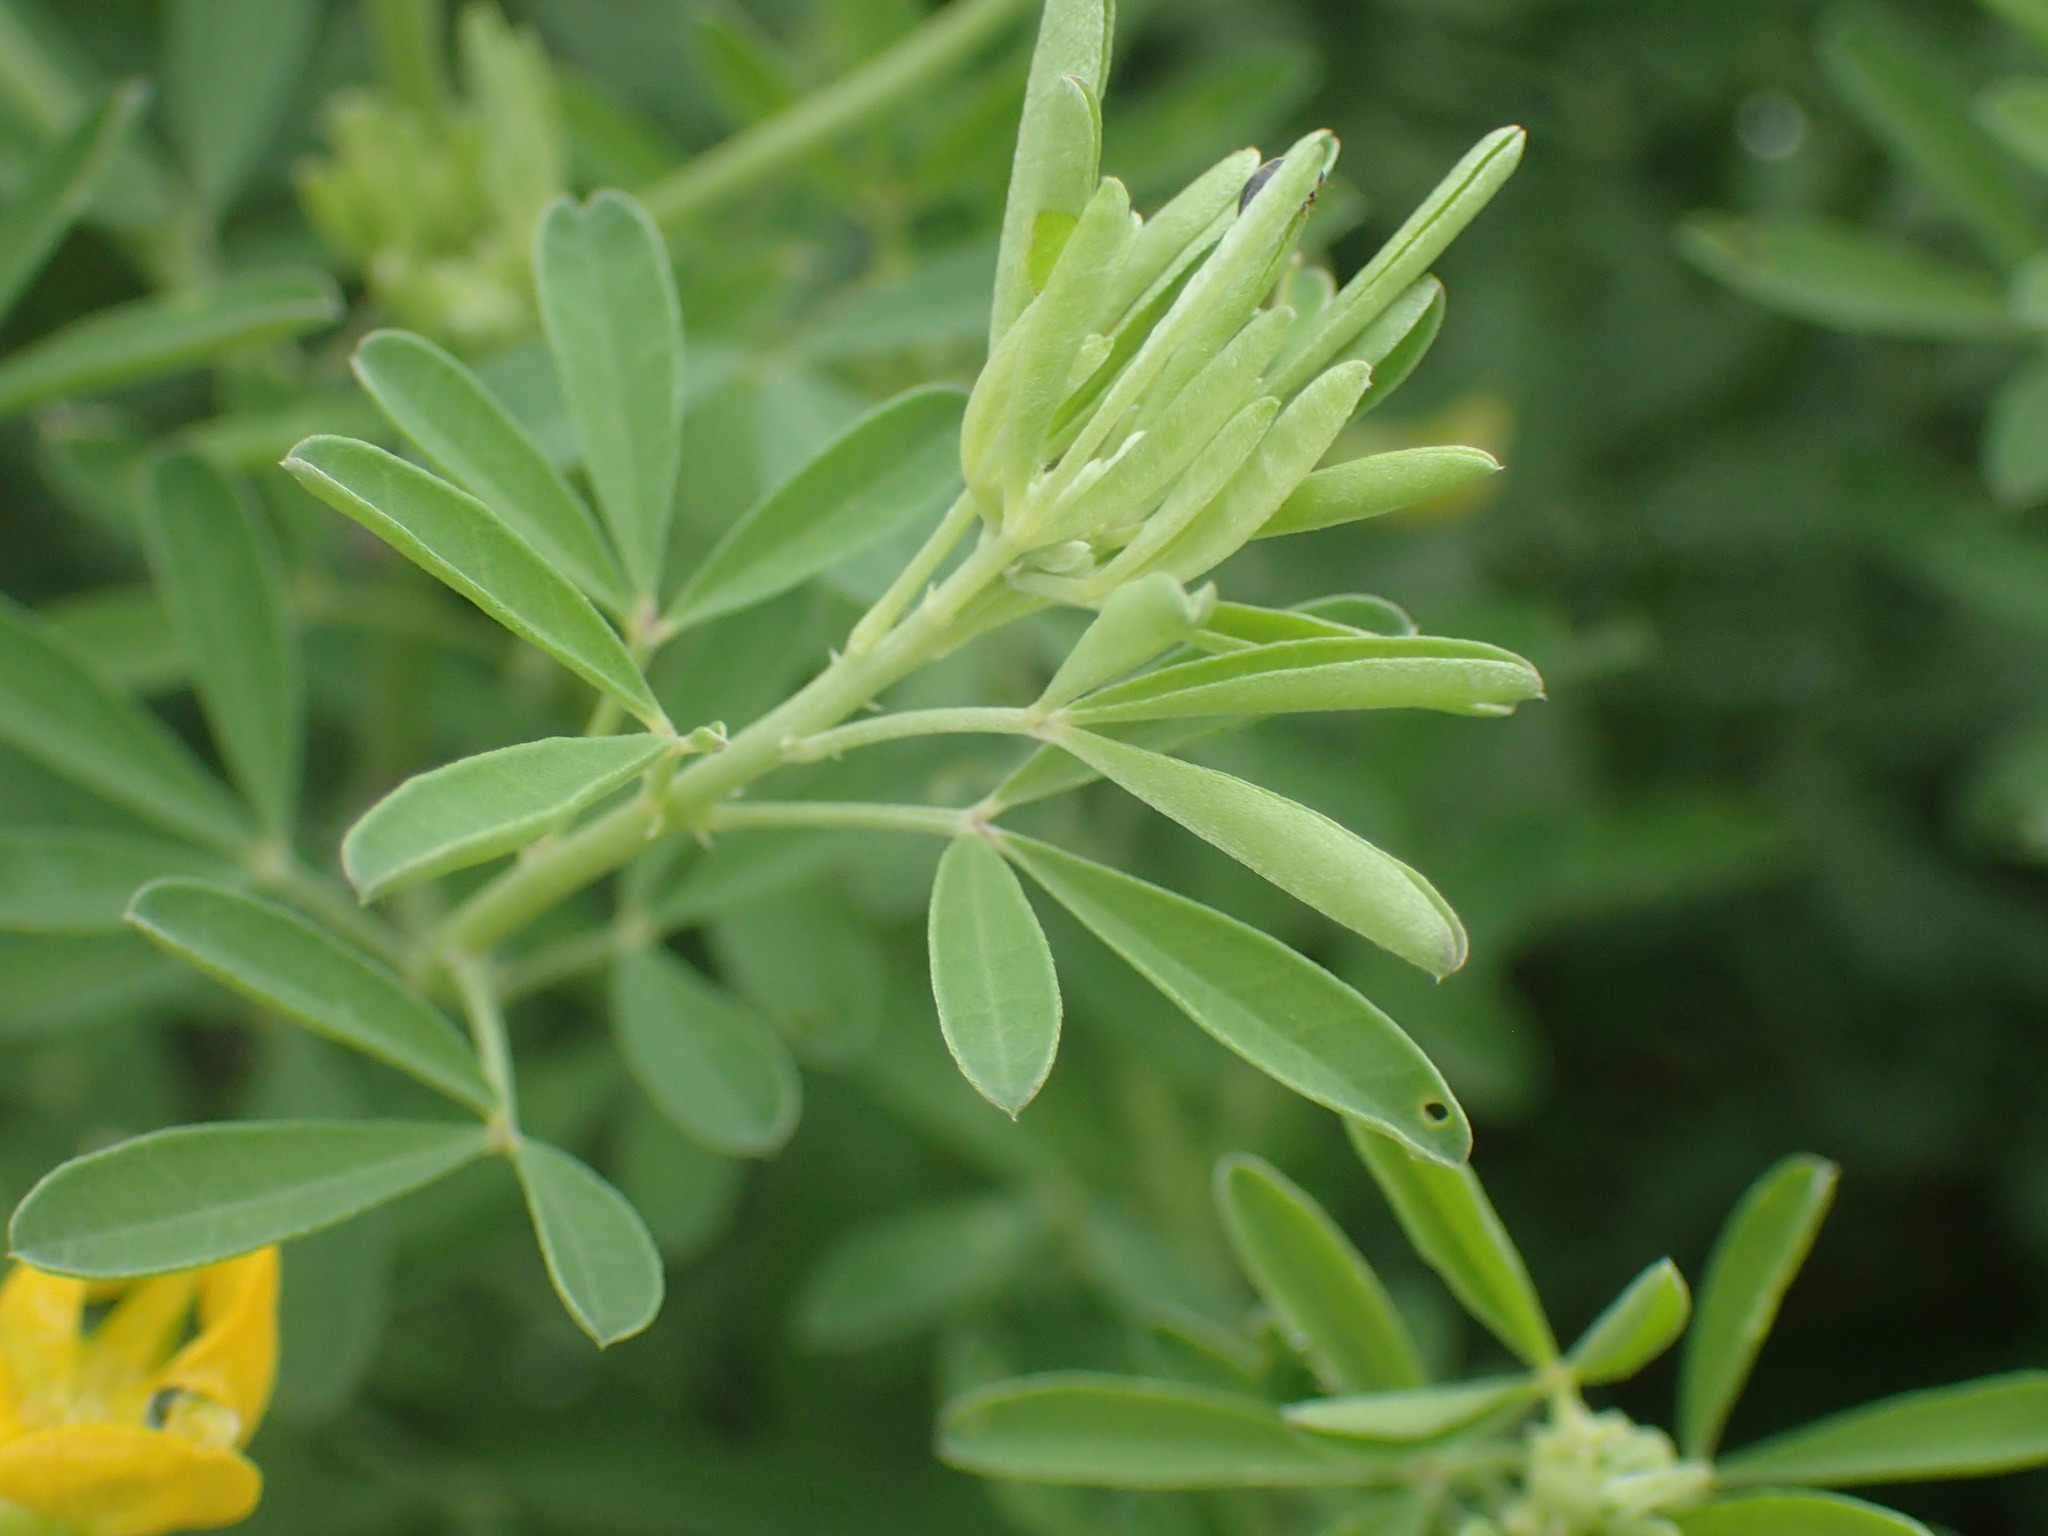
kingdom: Plantae
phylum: Tracheophyta
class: Magnoliopsida
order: Fabales
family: Fabaceae
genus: Eriosema
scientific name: Eriosema psoraleoides
